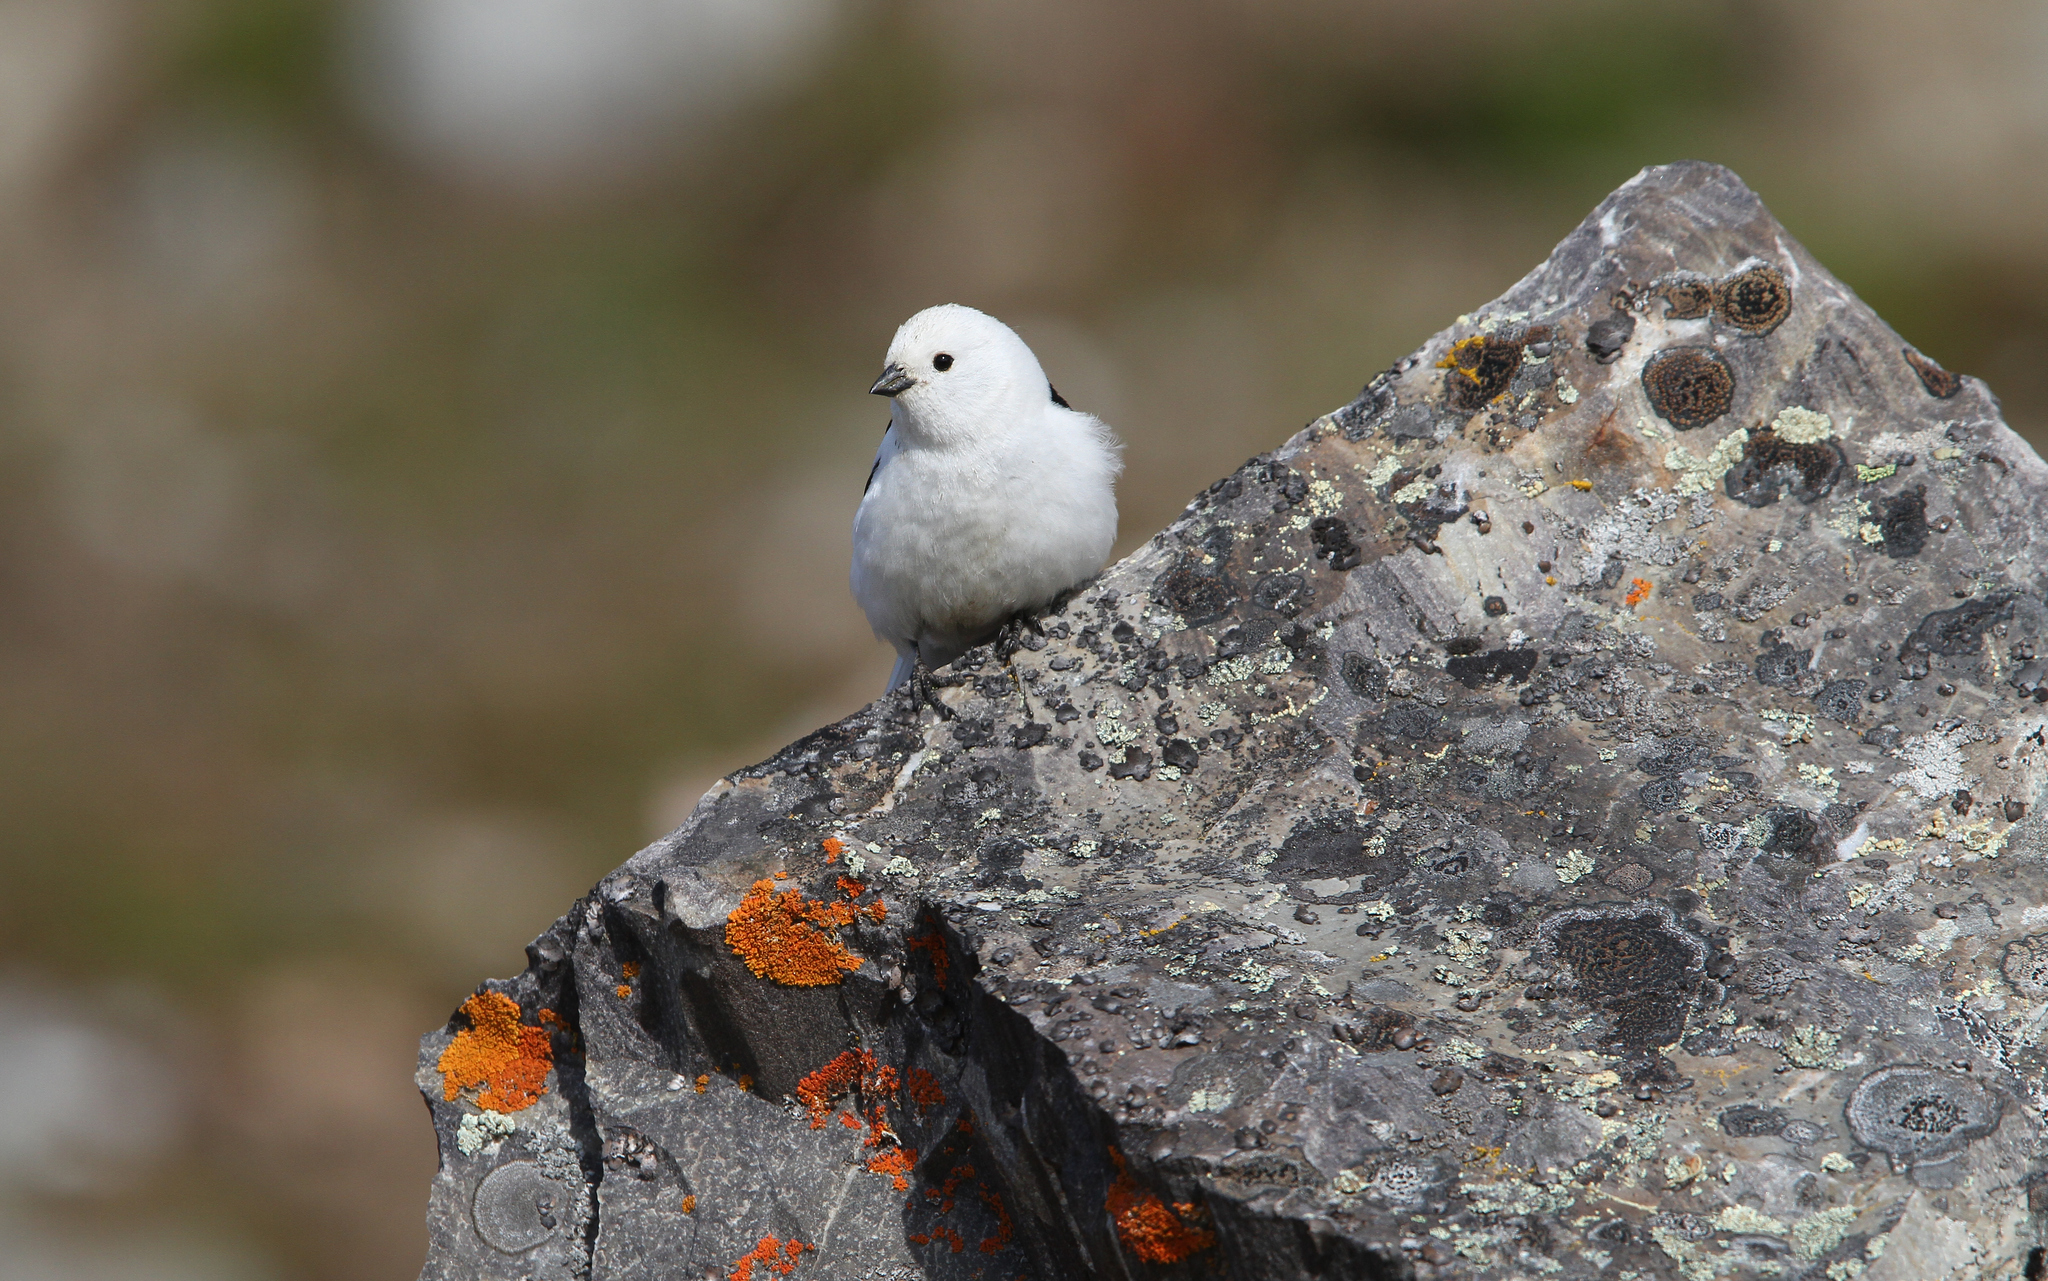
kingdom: Animalia
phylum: Chordata
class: Aves
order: Passeriformes
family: Calcariidae
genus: Plectrophenax
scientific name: Plectrophenax nivalis
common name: Snow bunting
